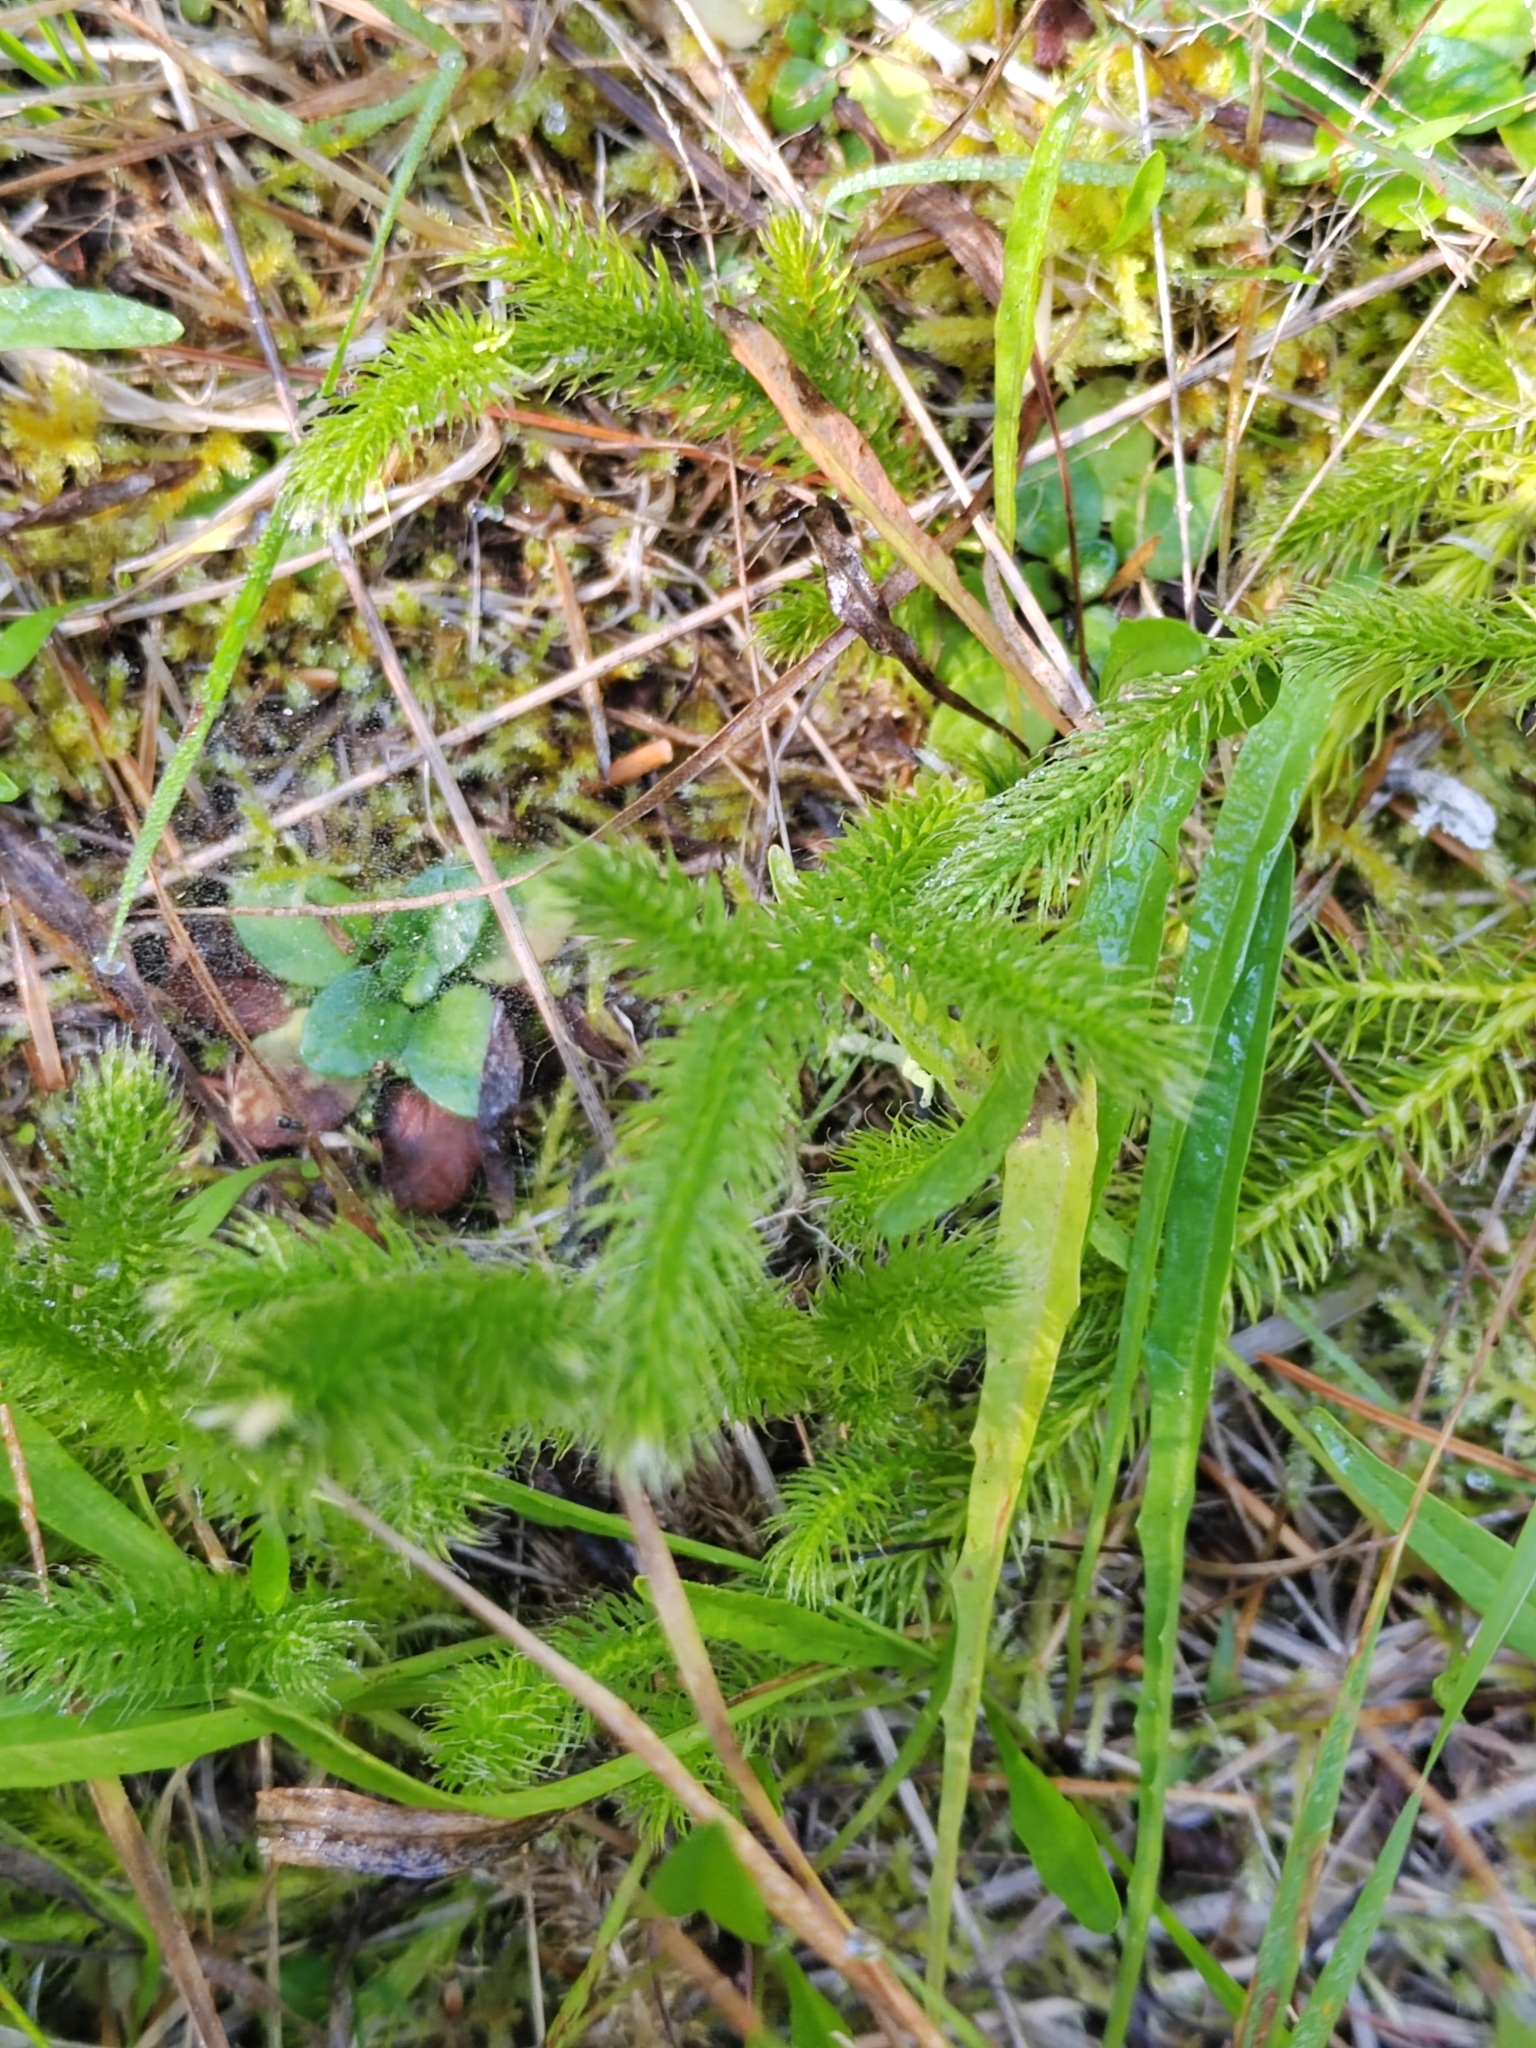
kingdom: Plantae
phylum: Tracheophyta
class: Lycopodiopsida
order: Lycopodiales
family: Lycopodiaceae
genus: Lycopodium
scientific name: Lycopodium clavatum
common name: Stag's-horn clubmoss
